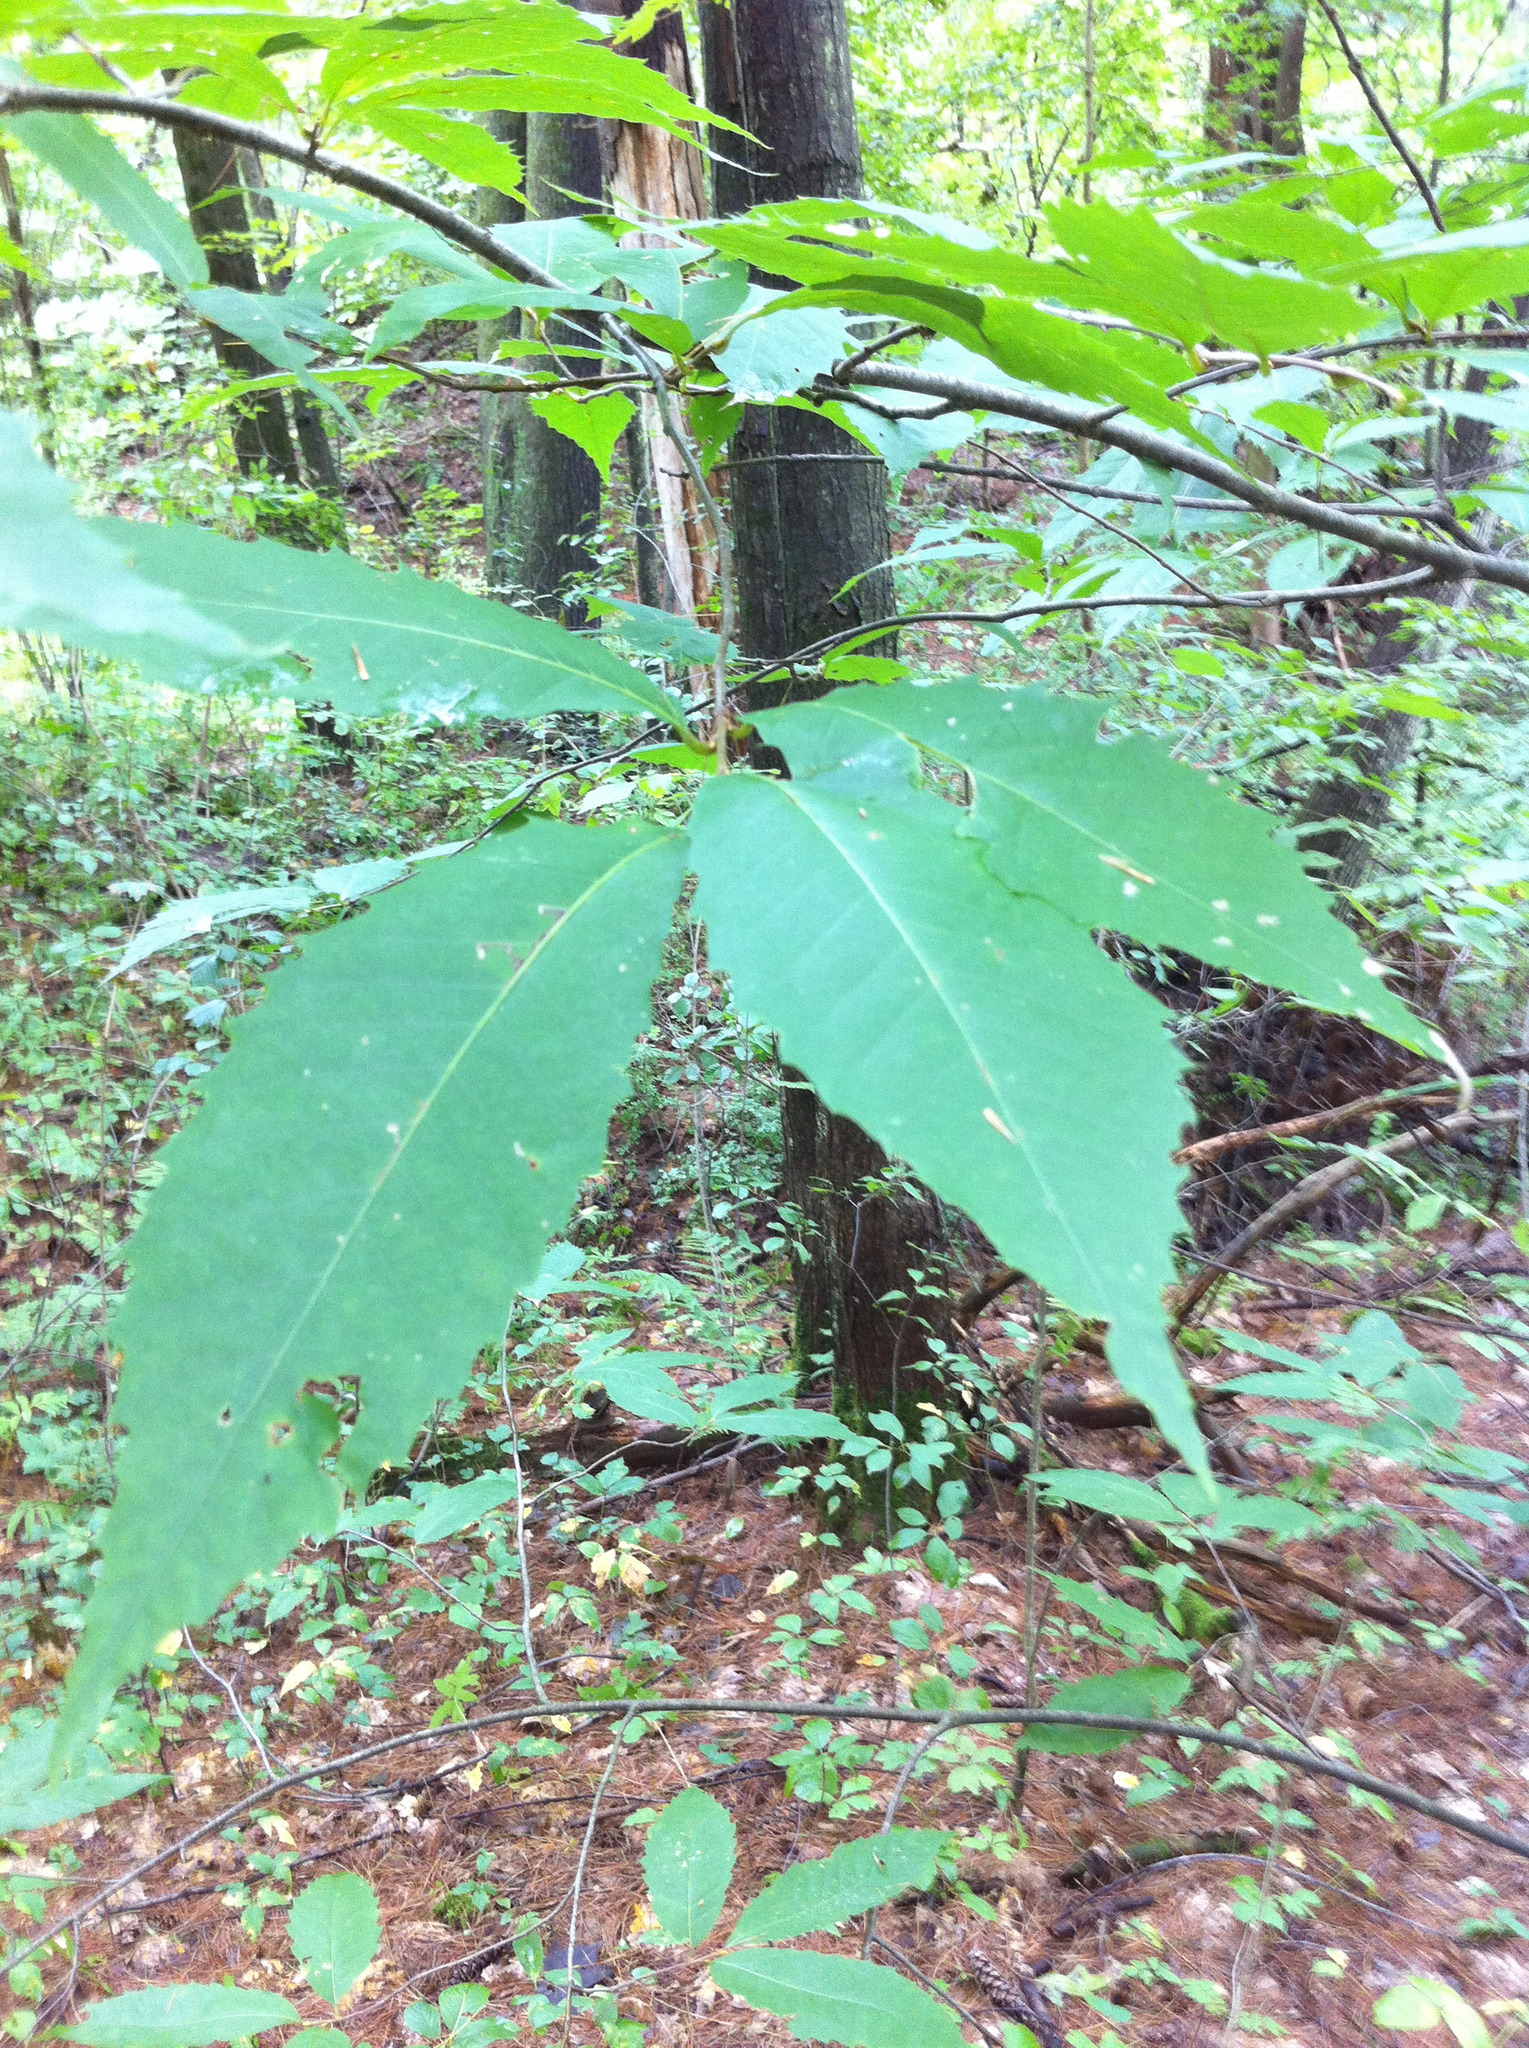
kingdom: Plantae
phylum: Tracheophyta
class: Magnoliopsida
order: Fagales
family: Fagaceae
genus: Castanea
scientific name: Castanea dentata
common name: American chestnut
